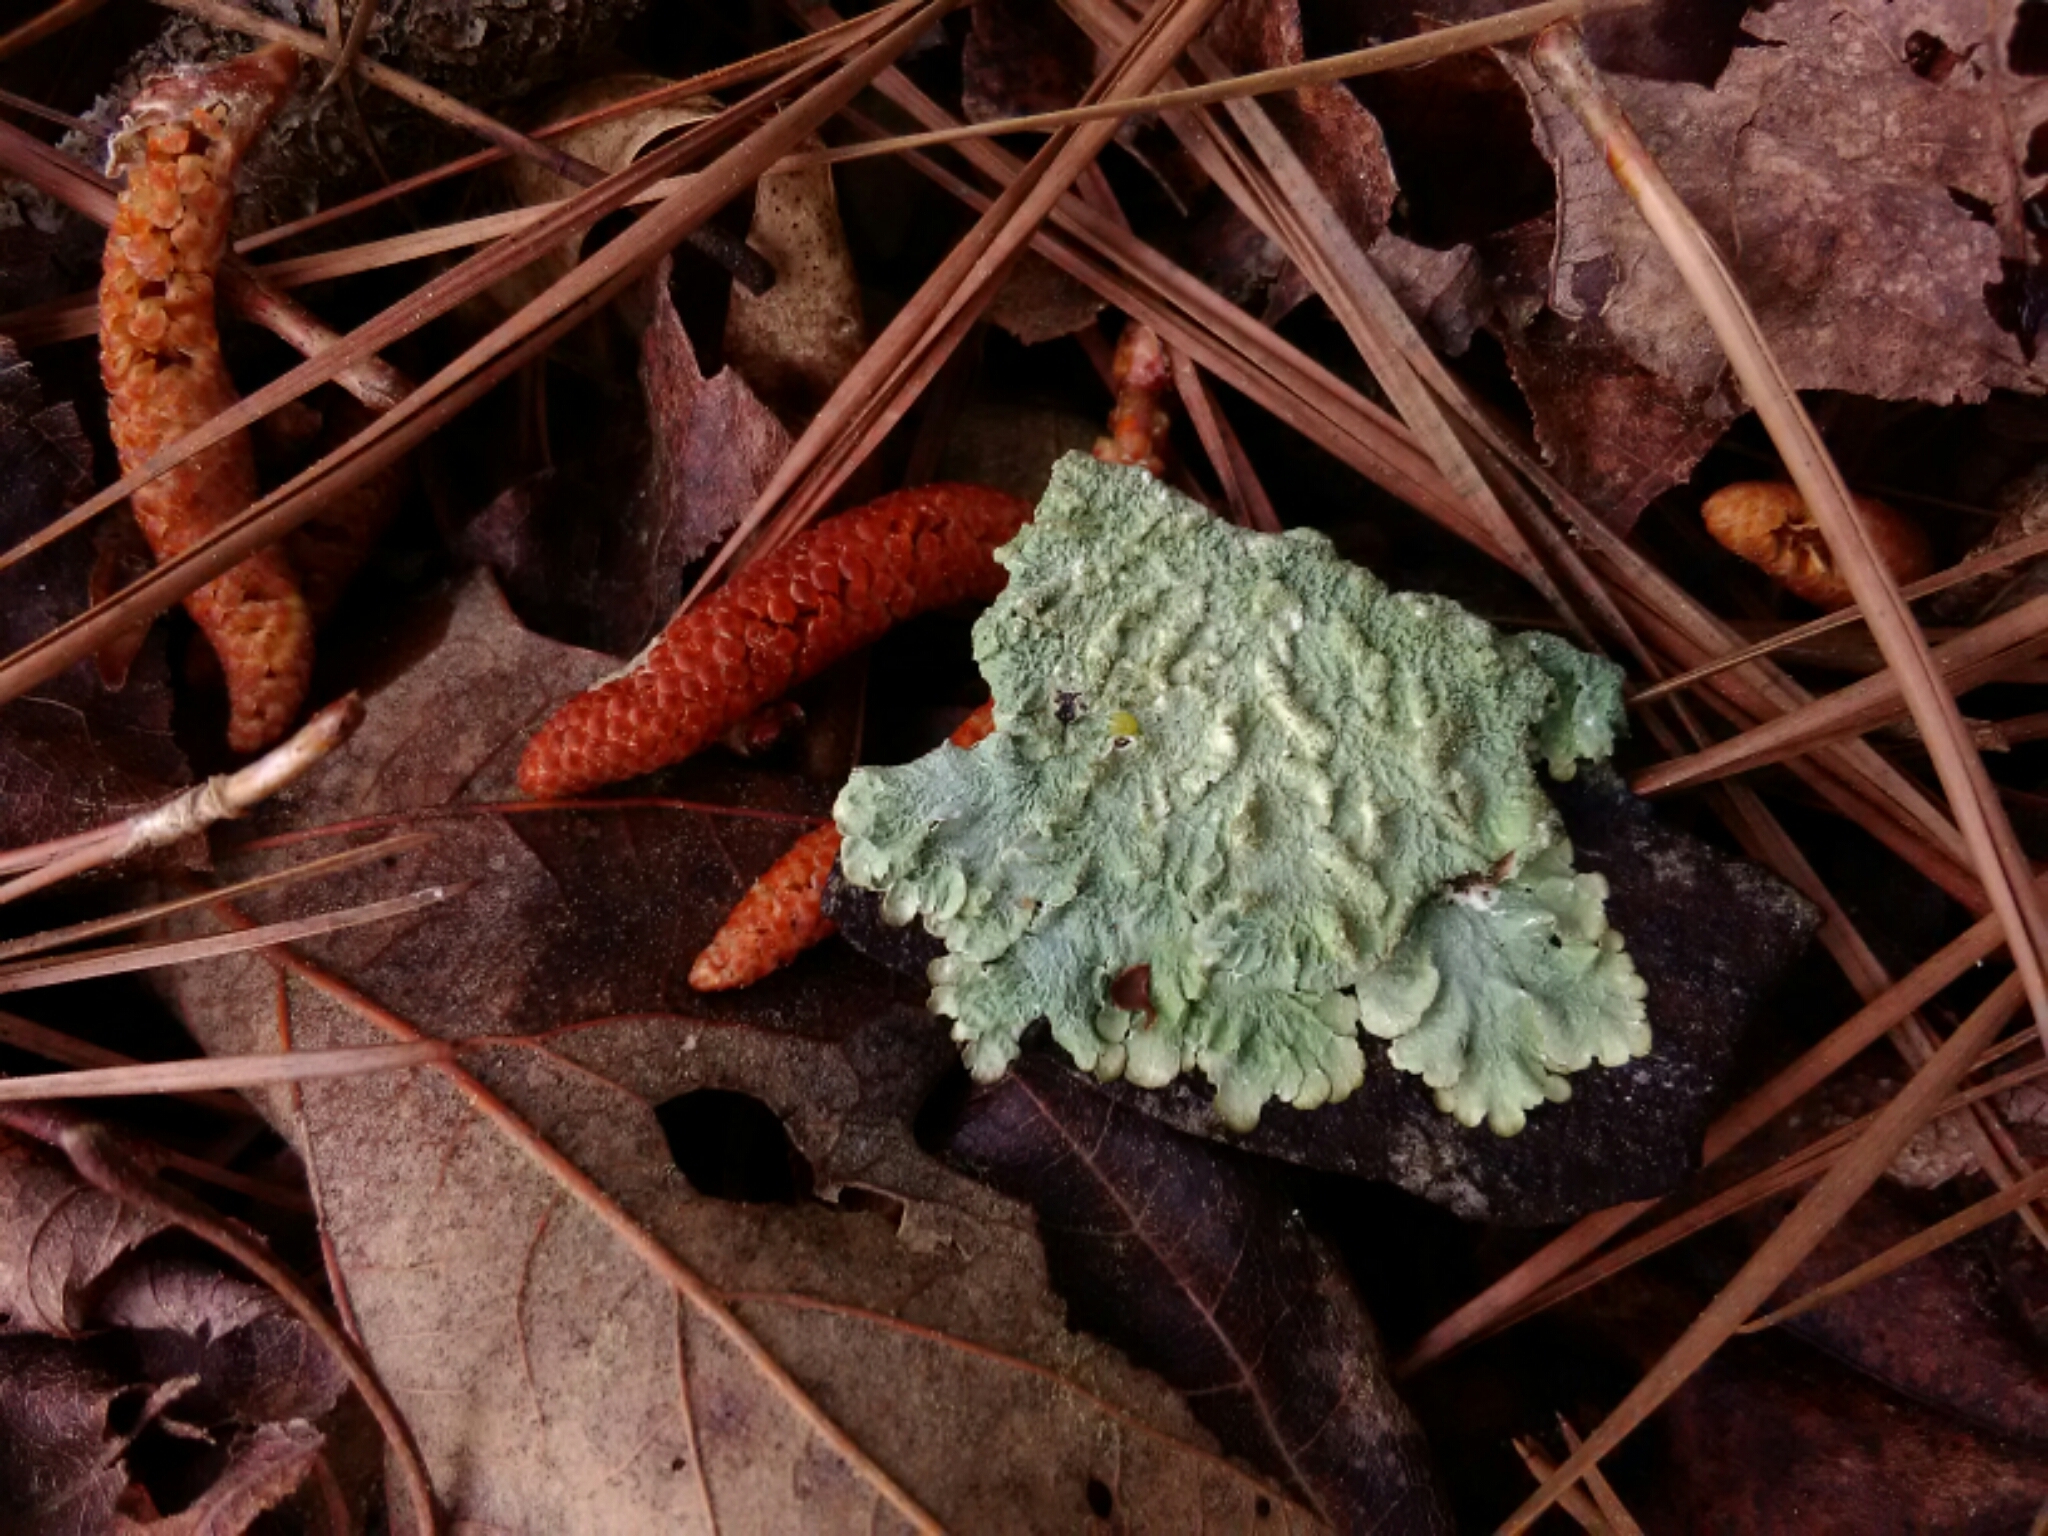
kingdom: Fungi
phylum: Ascomycota
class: Lecanoromycetes
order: Lecanorales
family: Parmeliaceae
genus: Flavoparmelia
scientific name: Flavoparmelia caperata
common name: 40-mile per hour lichen
